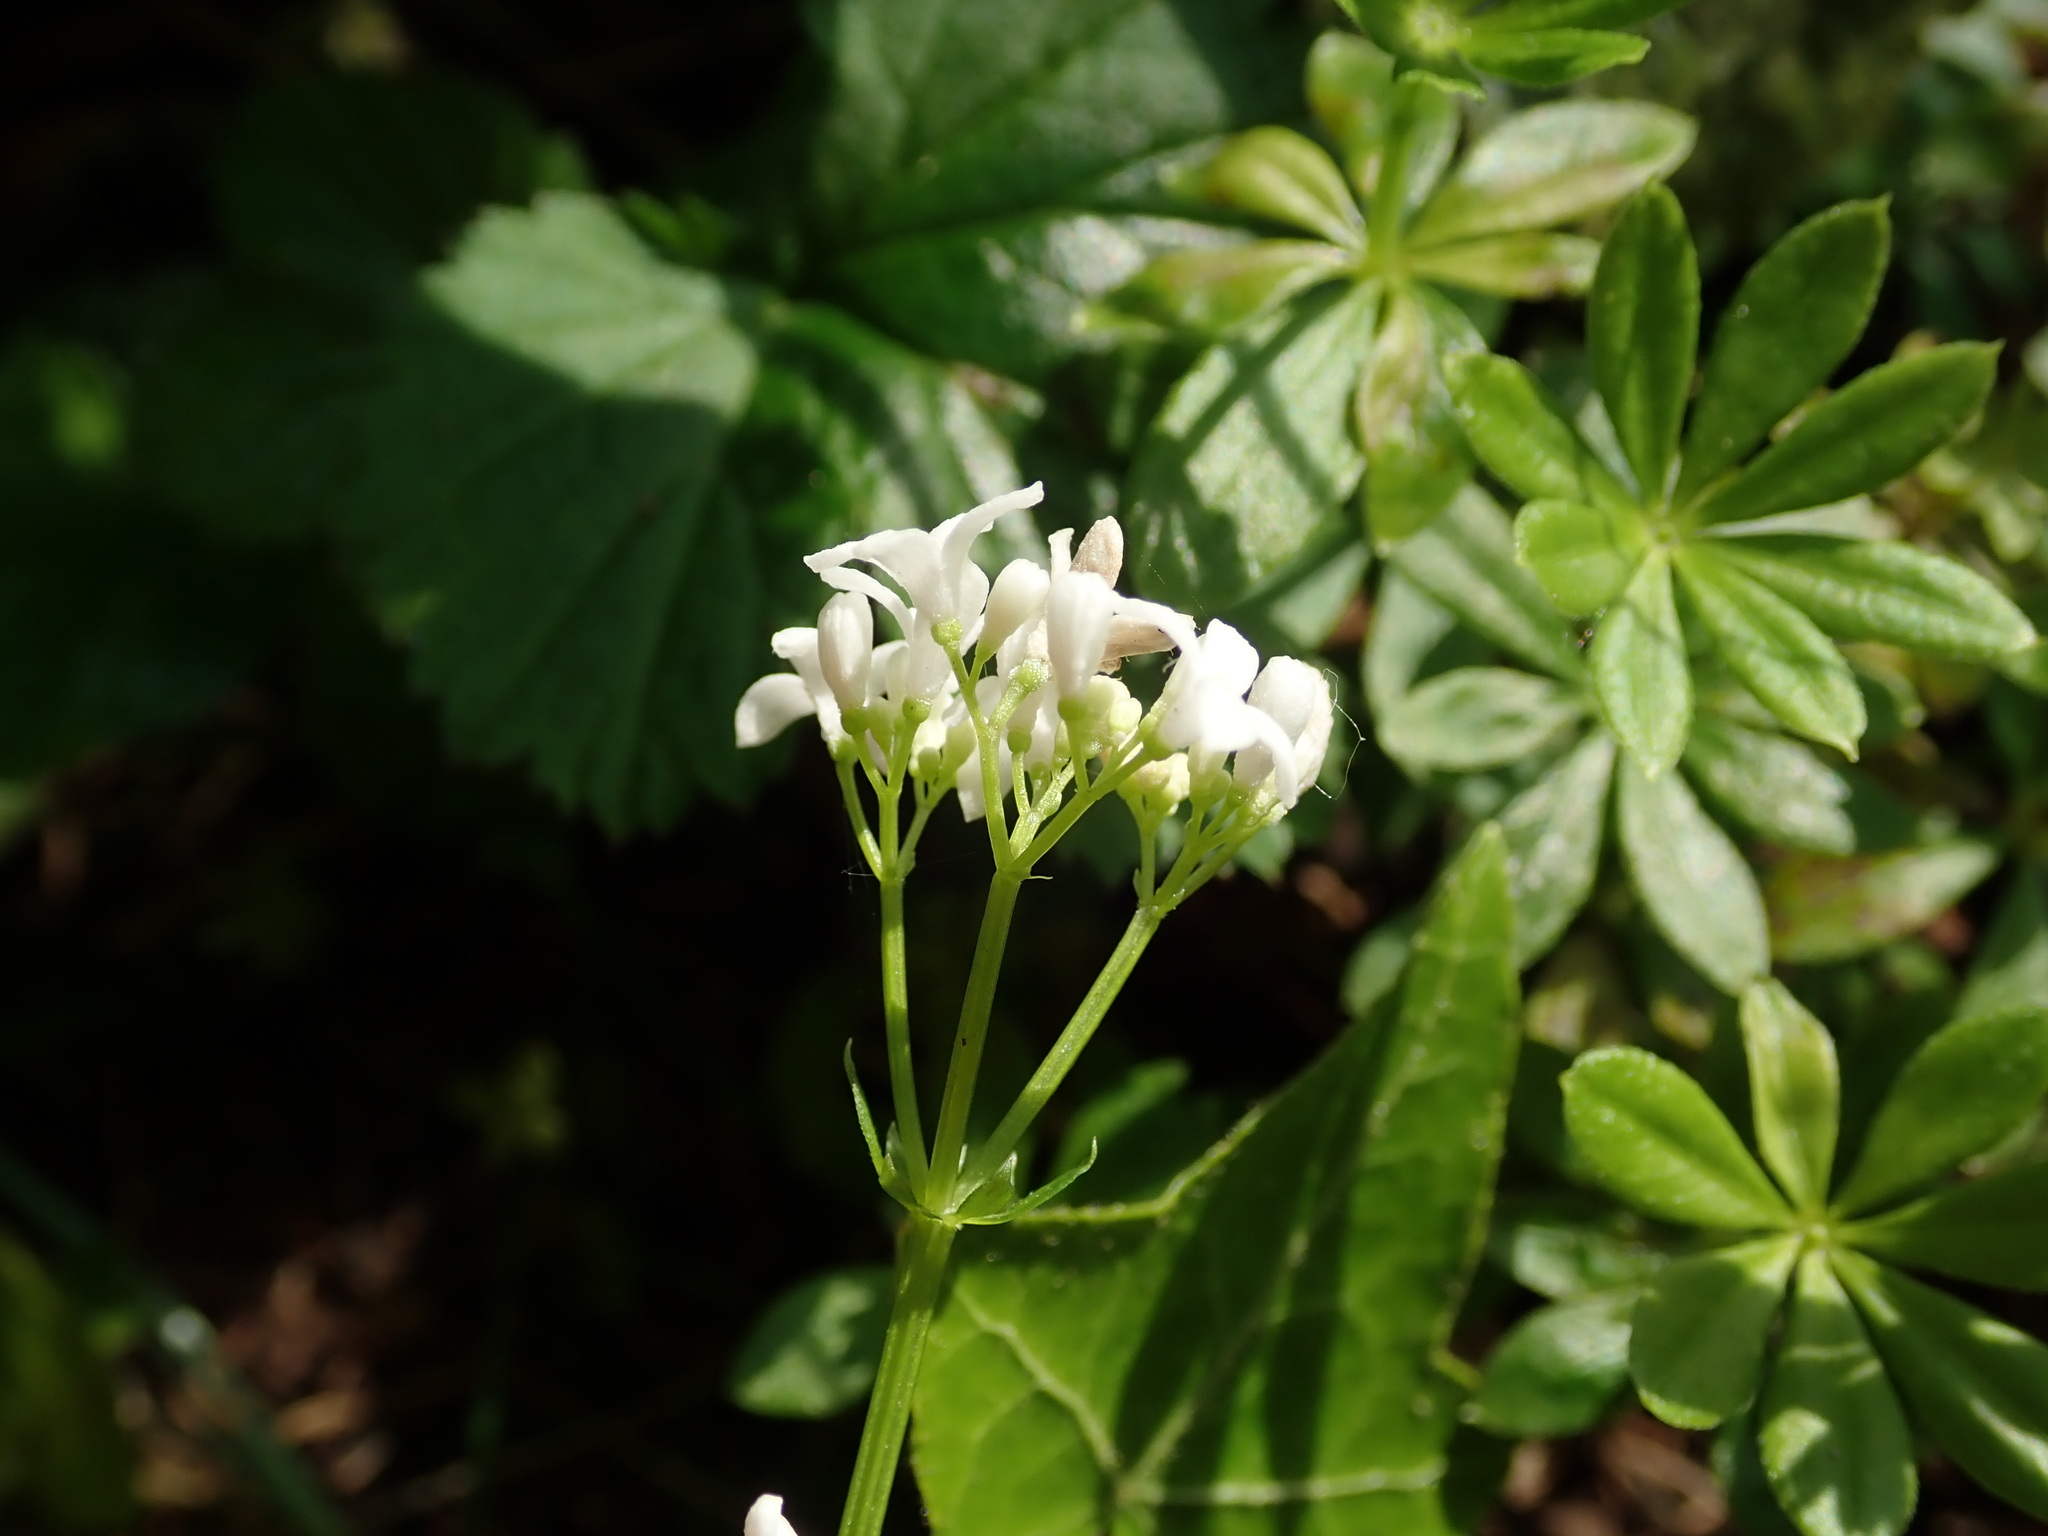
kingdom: Plantae
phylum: Tracheophyta
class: Magnoliopsida
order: Gentianales
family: Rubiaceae
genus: Galium
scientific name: Galium odoratum
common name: Sweet woodruff
